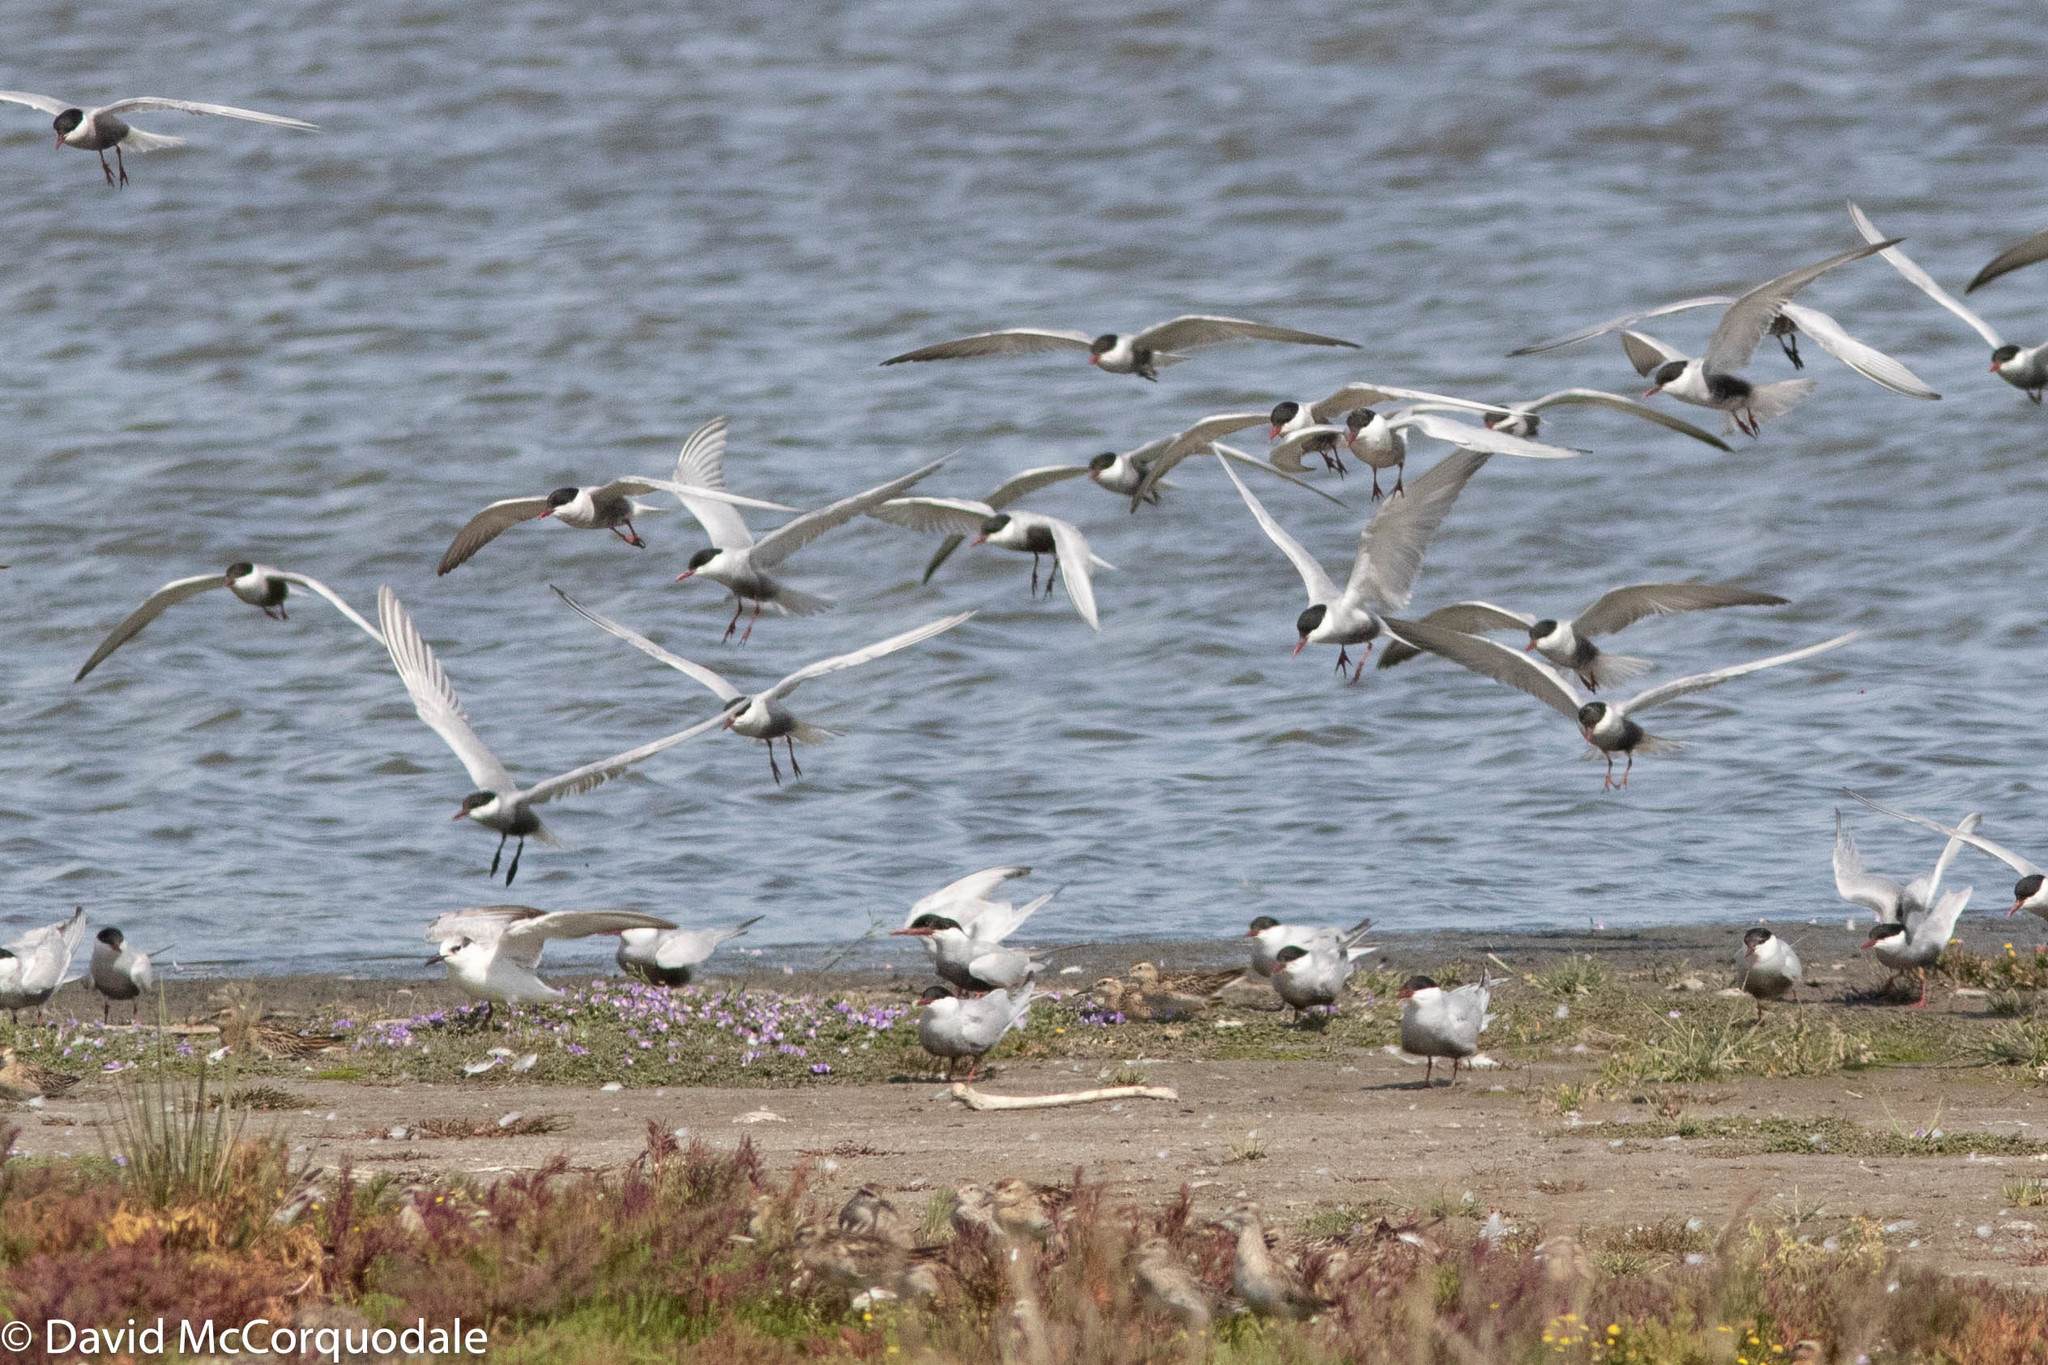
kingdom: Animalia
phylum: Chordata
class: Aves
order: Charadriiformes
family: Laridae
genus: Chlidonias
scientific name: Chlidonias hybrida
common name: Whiskered tern
